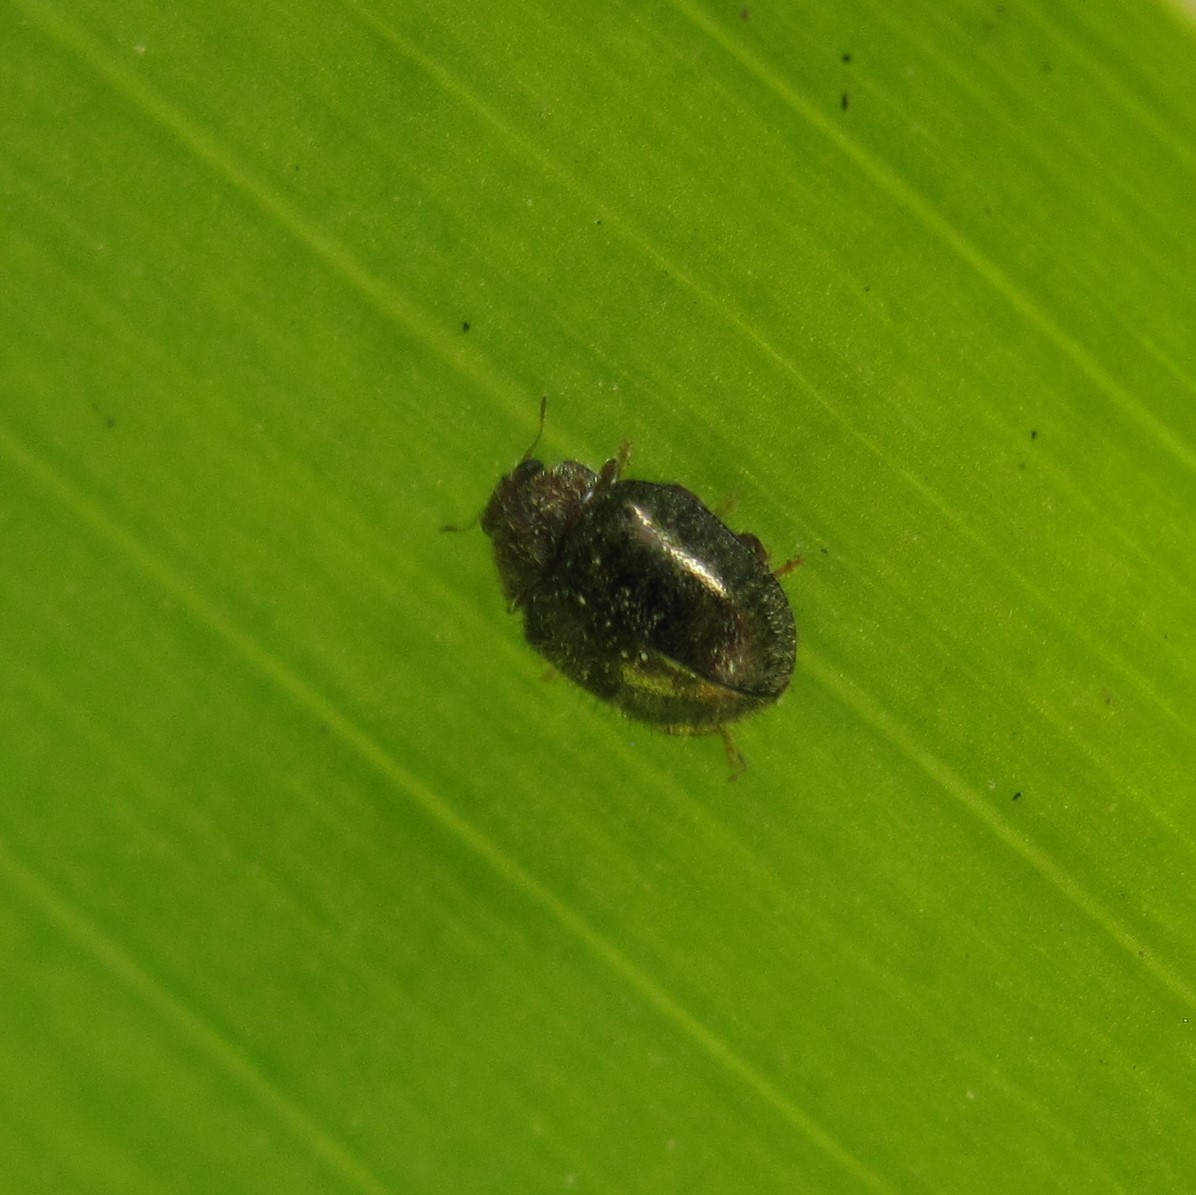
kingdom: Animalia
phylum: Arthropoda
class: Insecta
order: Coleoptera
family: Coccinellidae
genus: Rhyzobius
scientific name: Rhyzobius fagus
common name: Lady beetle
